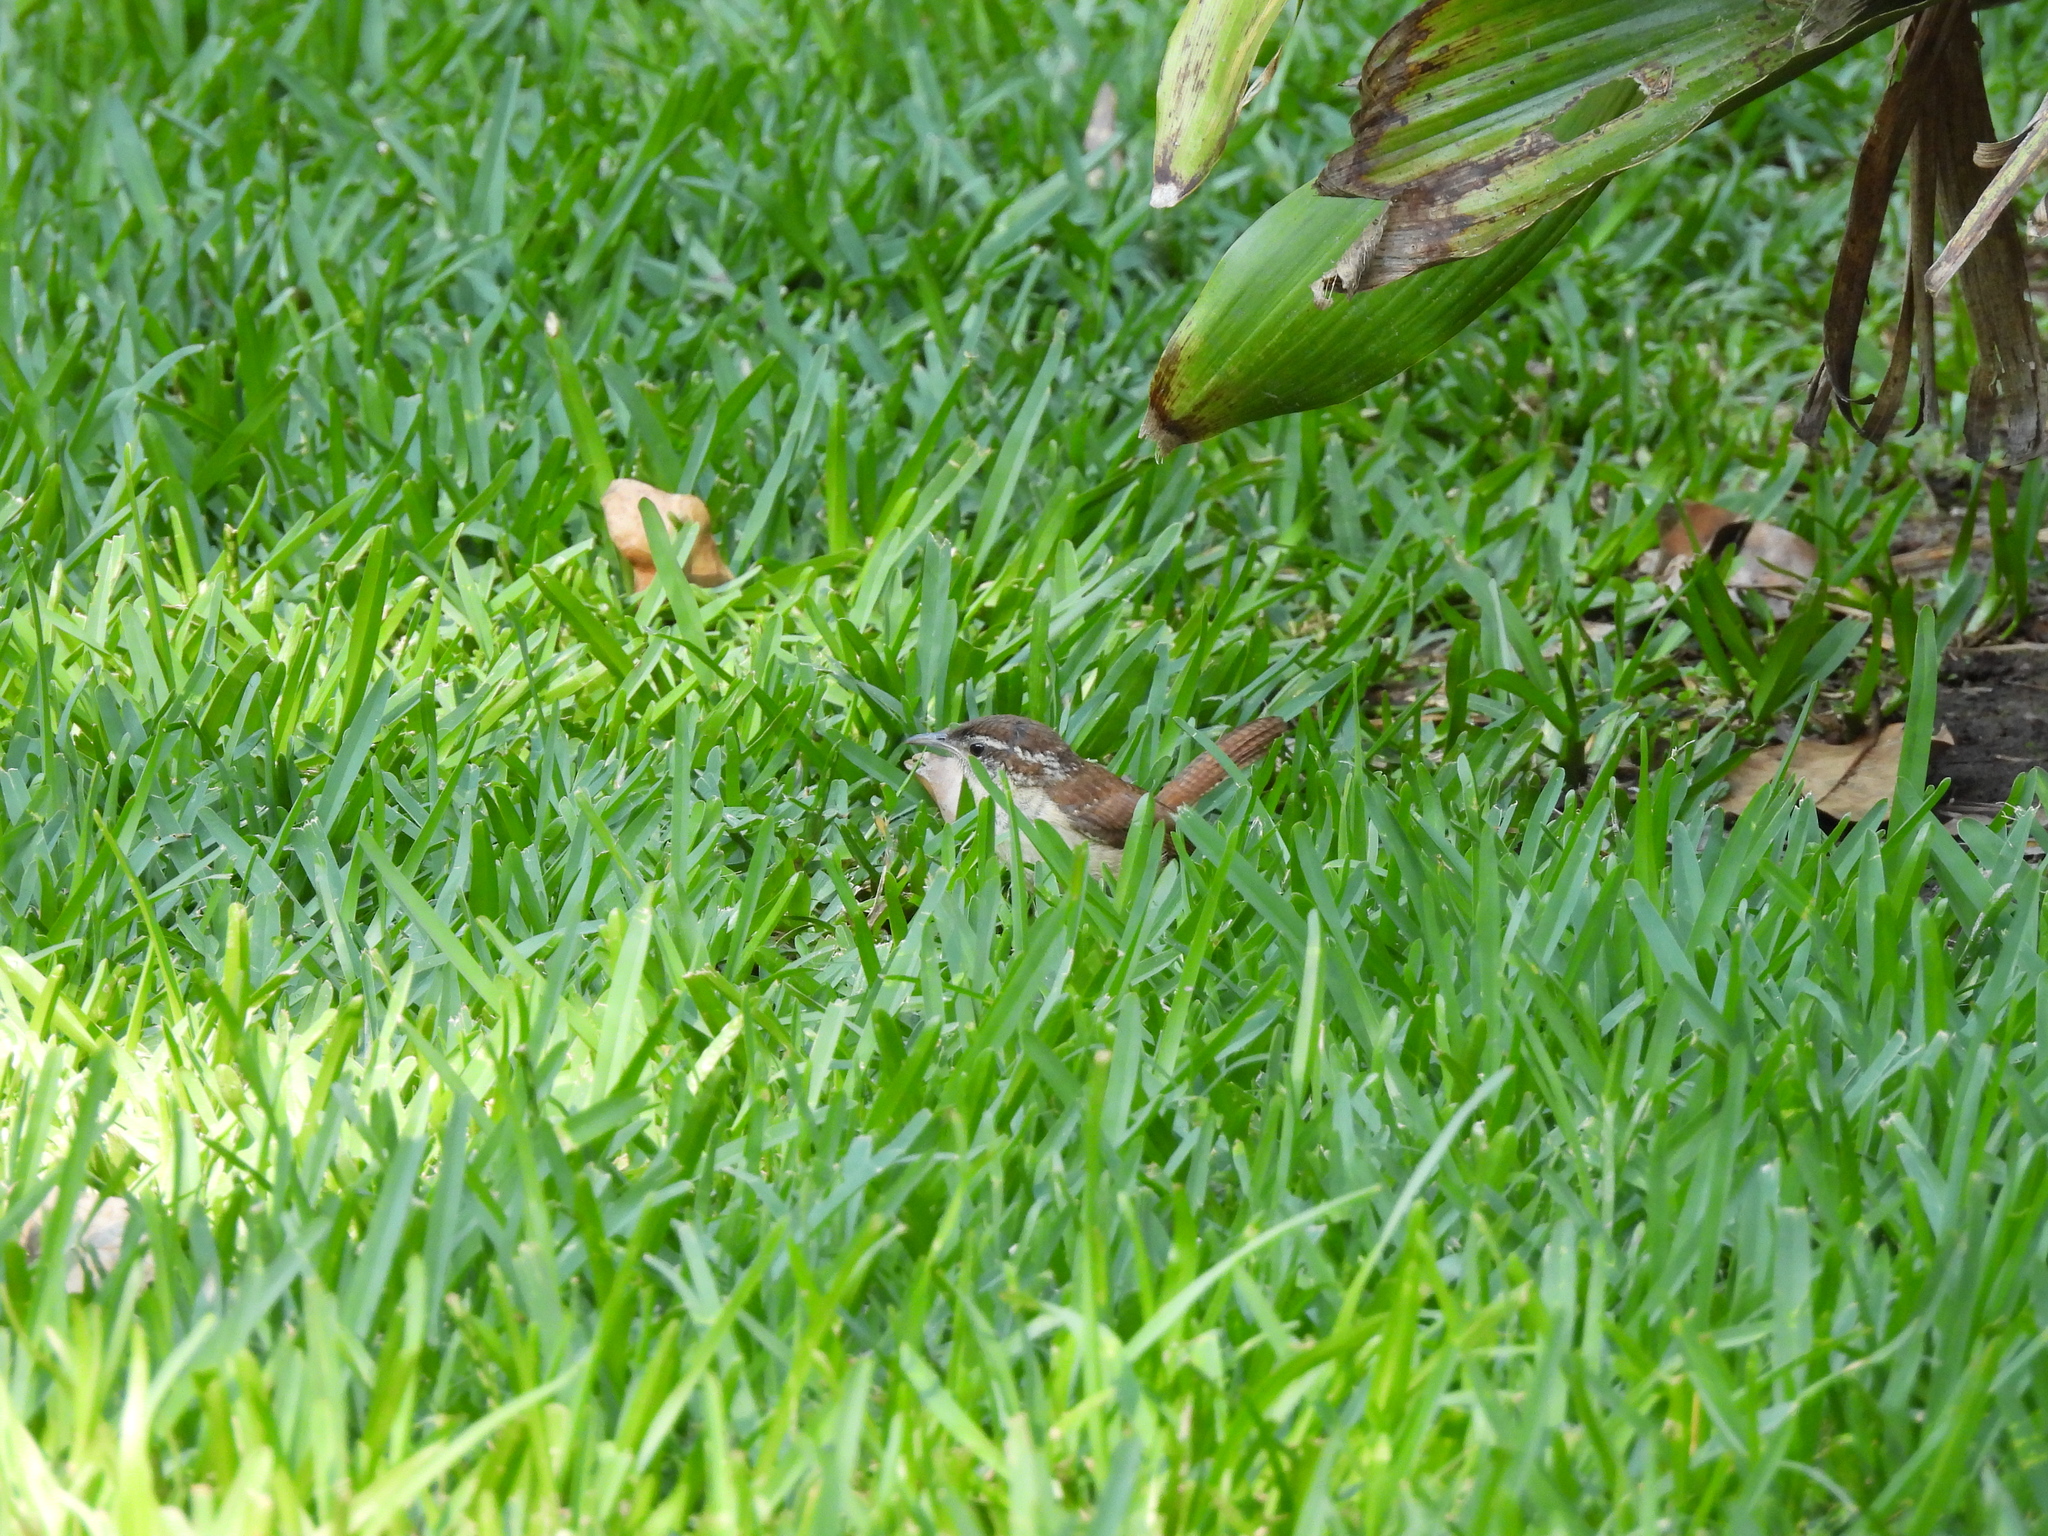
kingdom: Animalia
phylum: Chordata
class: Aves
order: Passeriformes
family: Troglodytidae
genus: Thryothorus
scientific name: Thryothorus ludovicianus
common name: Carolina wren
